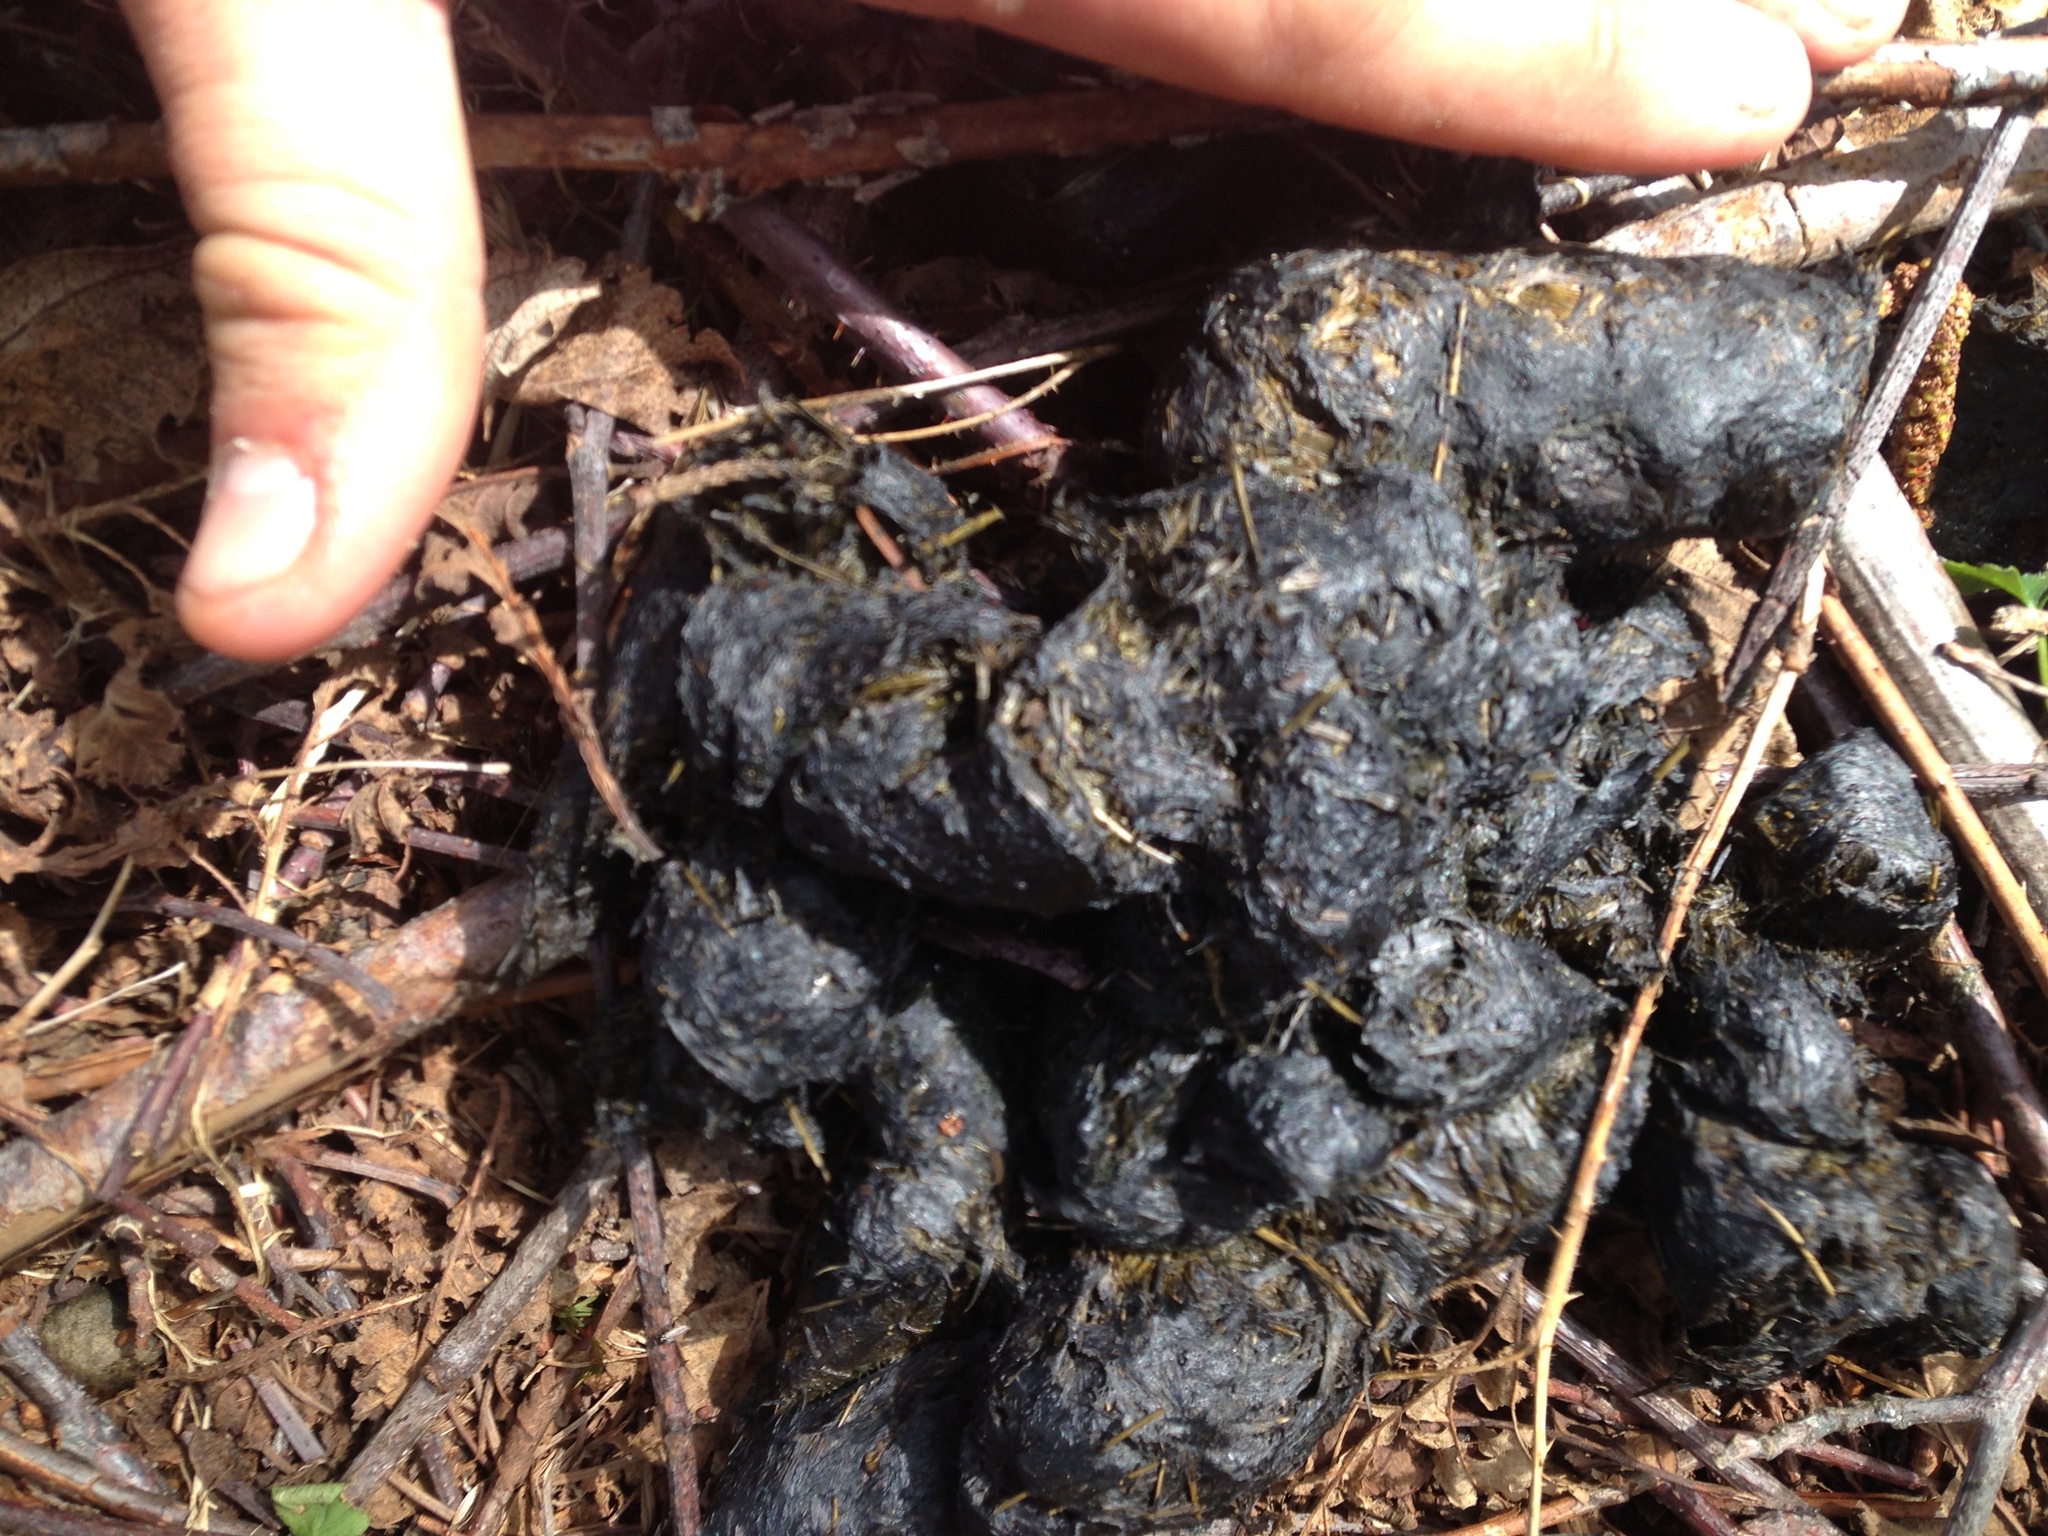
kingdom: Animalia
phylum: Chordata
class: Mammalia
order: Carnivora
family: Ursidae
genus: Ursus
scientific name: Ursus americanus
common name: American black bear
